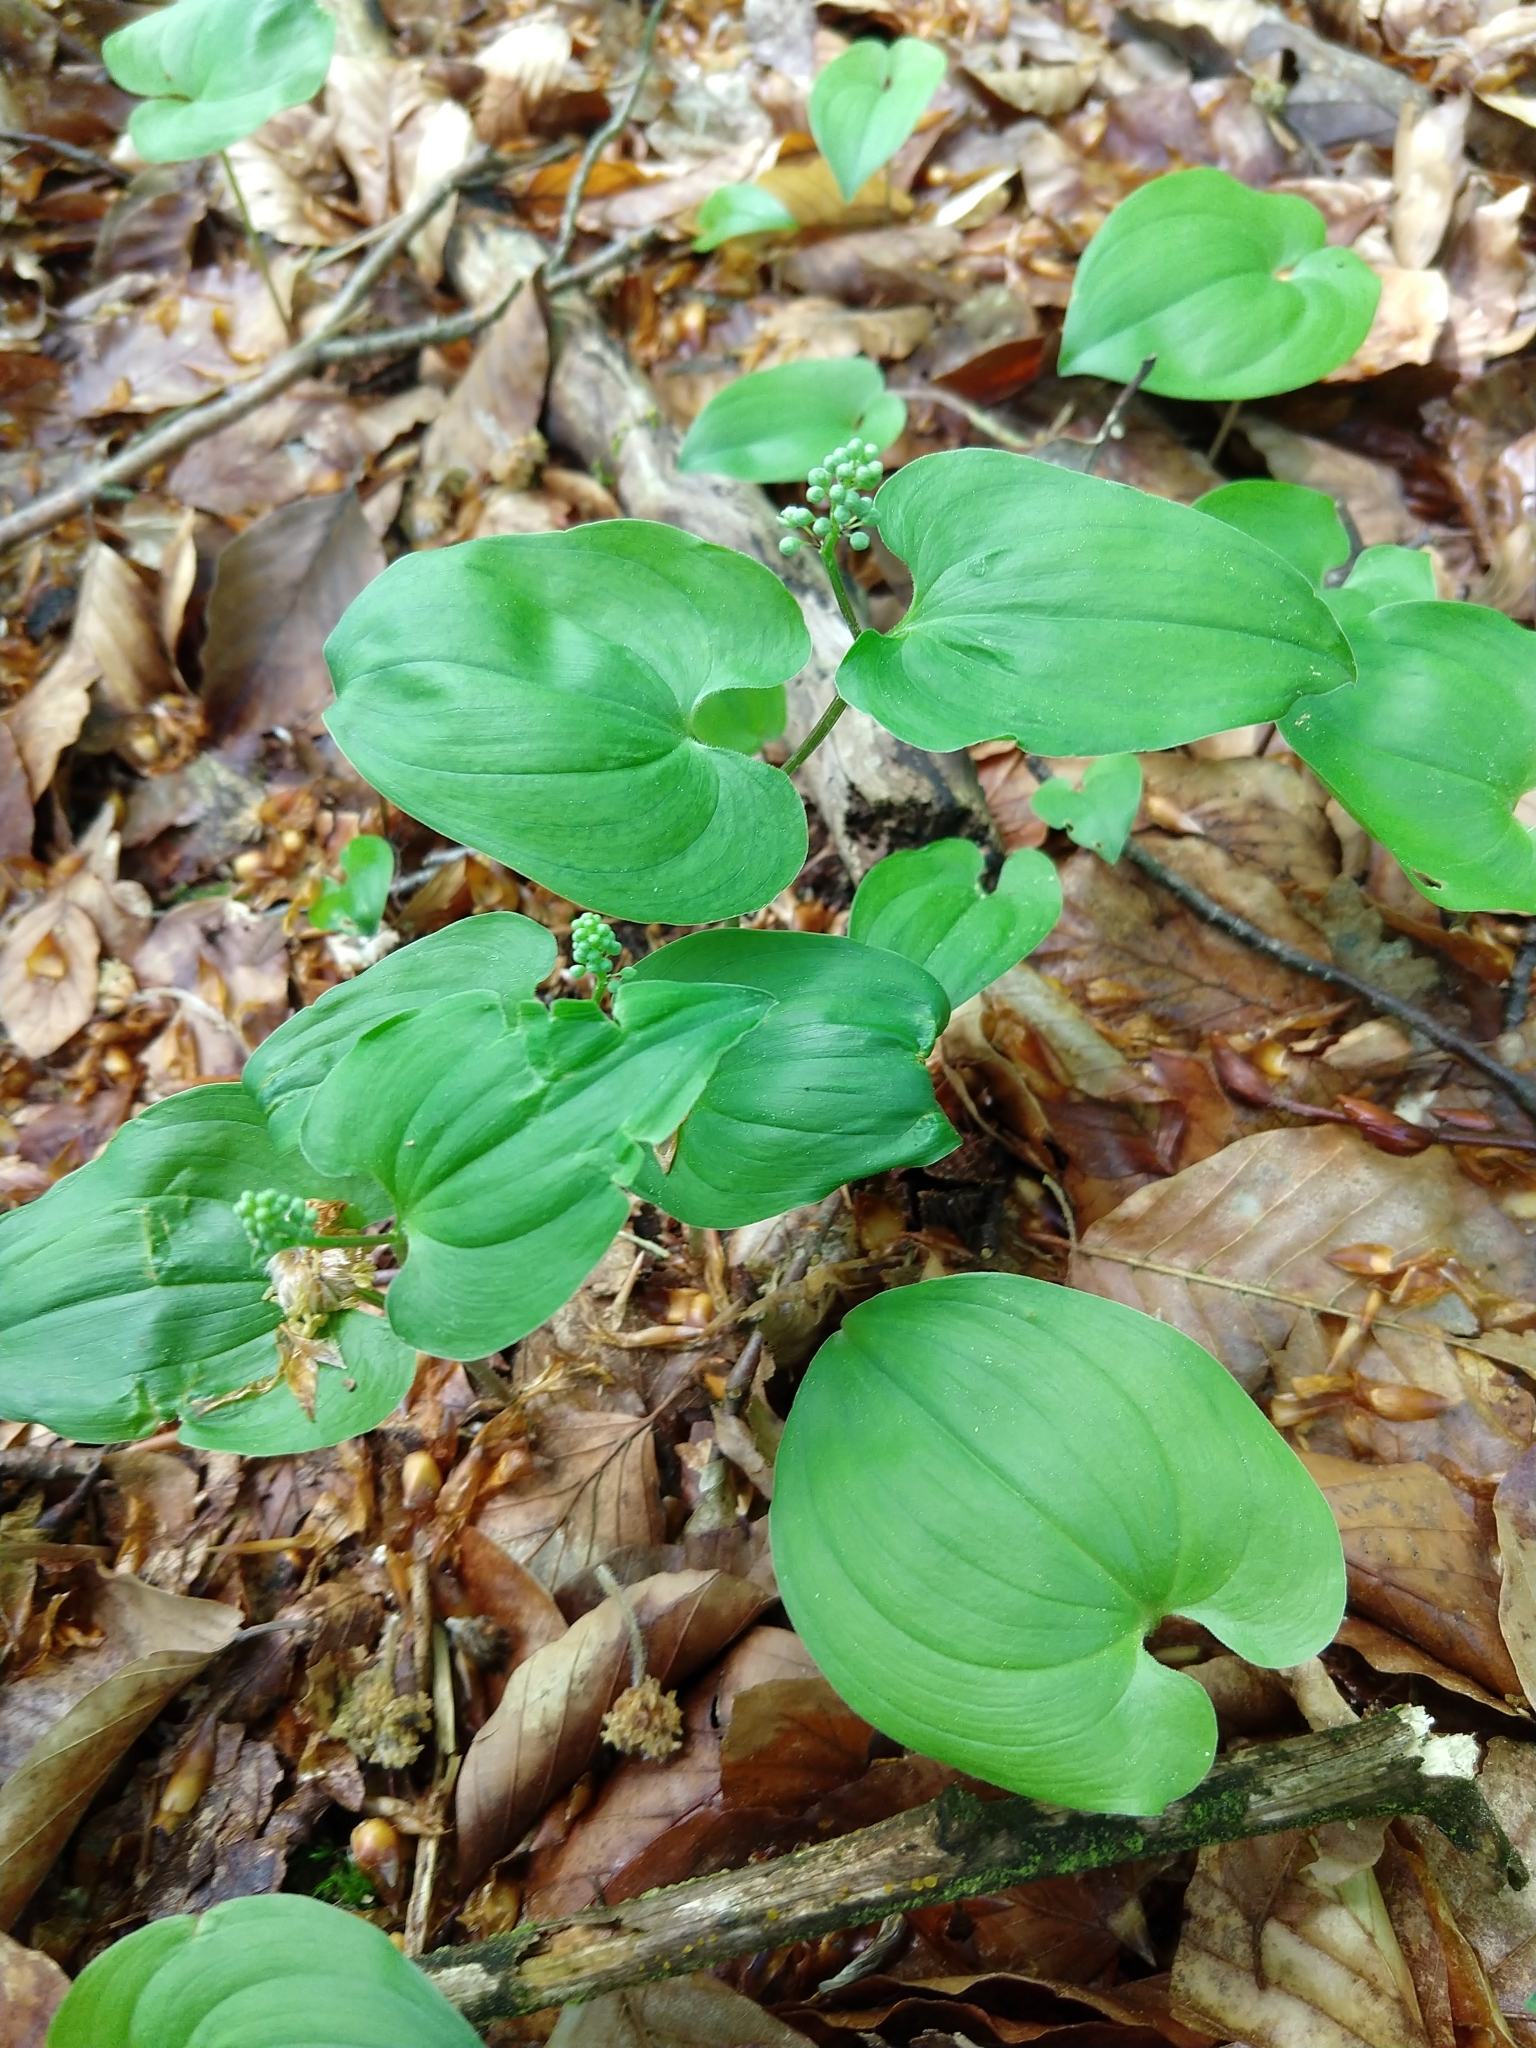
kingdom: Plantae
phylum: Tracheophyta
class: Liliopsida
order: Asparagales
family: Asparagaceae
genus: Maianthemum
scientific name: Maianthemum bifolium
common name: May lily
